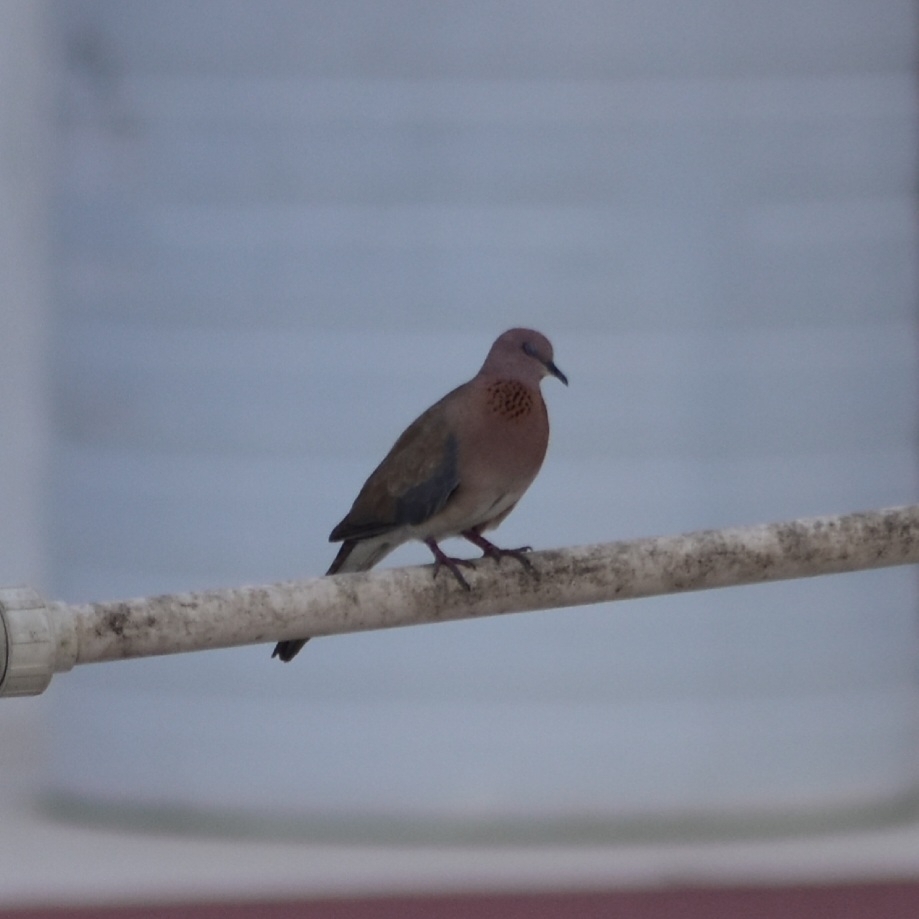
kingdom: Animalia
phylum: Chordata
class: Aves
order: Columbiformes
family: Columbidae
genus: Spilopelia
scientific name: Spilopelia senegalensis
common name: Laughing dove
